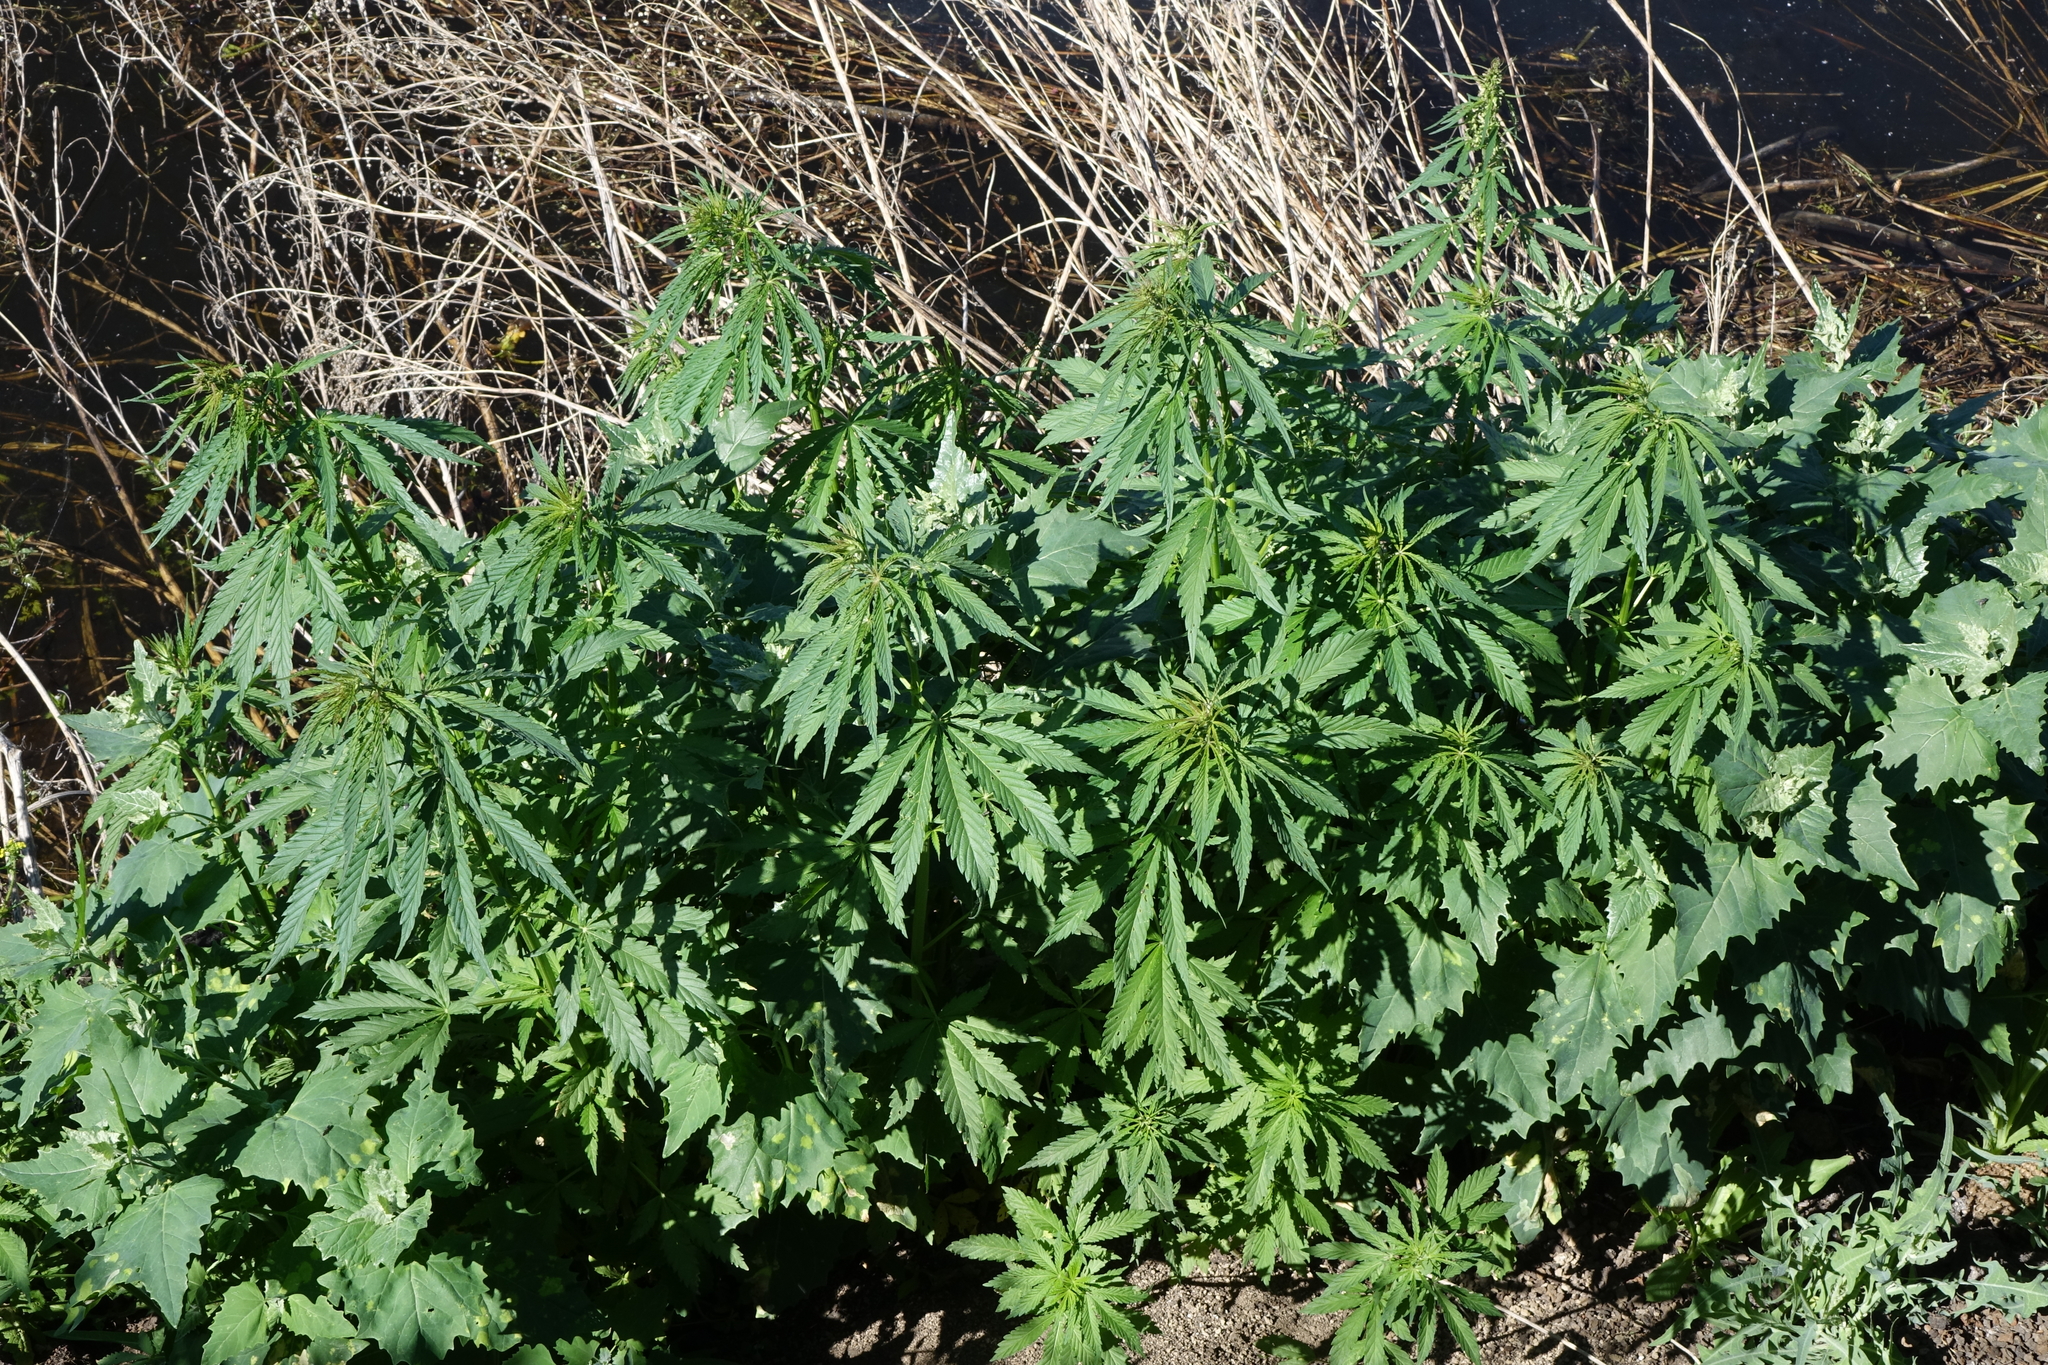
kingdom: Plantae
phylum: Tracheophyta
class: Magnoliopsida
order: Rosales
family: Cannabaceae
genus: Cannabis
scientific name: Cannabis sativa
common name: Hemp
